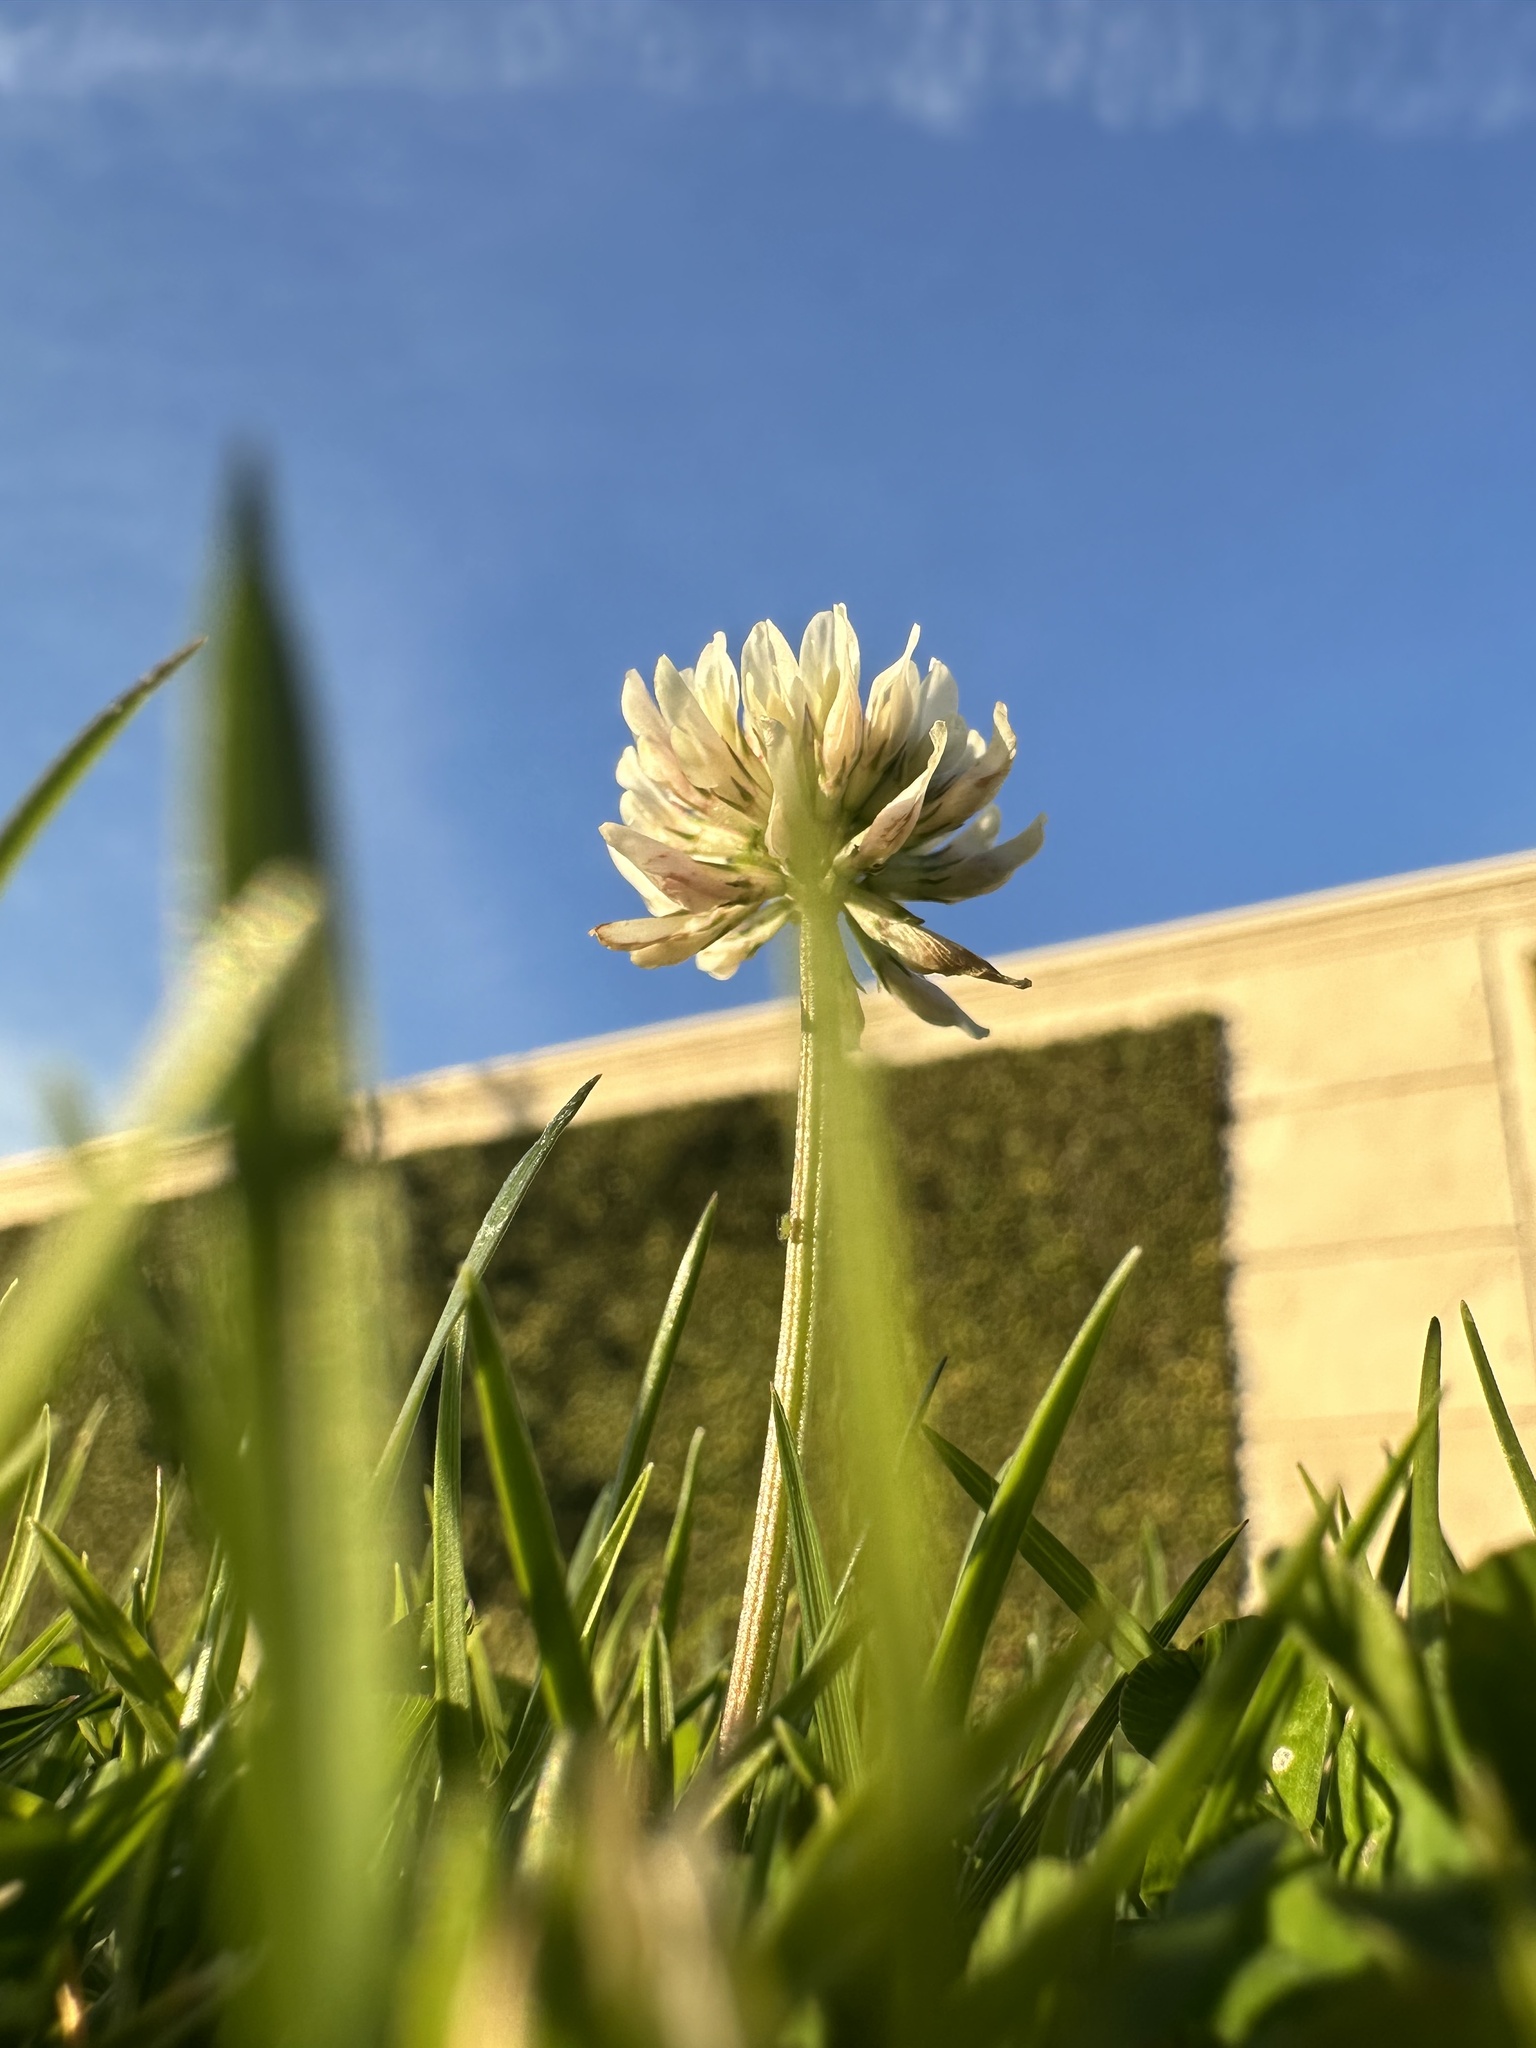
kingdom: Plantae
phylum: Tracheophyta
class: Magnoliopsida
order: Fabales
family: Fabaceae
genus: Trifolium
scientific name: Trifolium repens
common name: White clover
